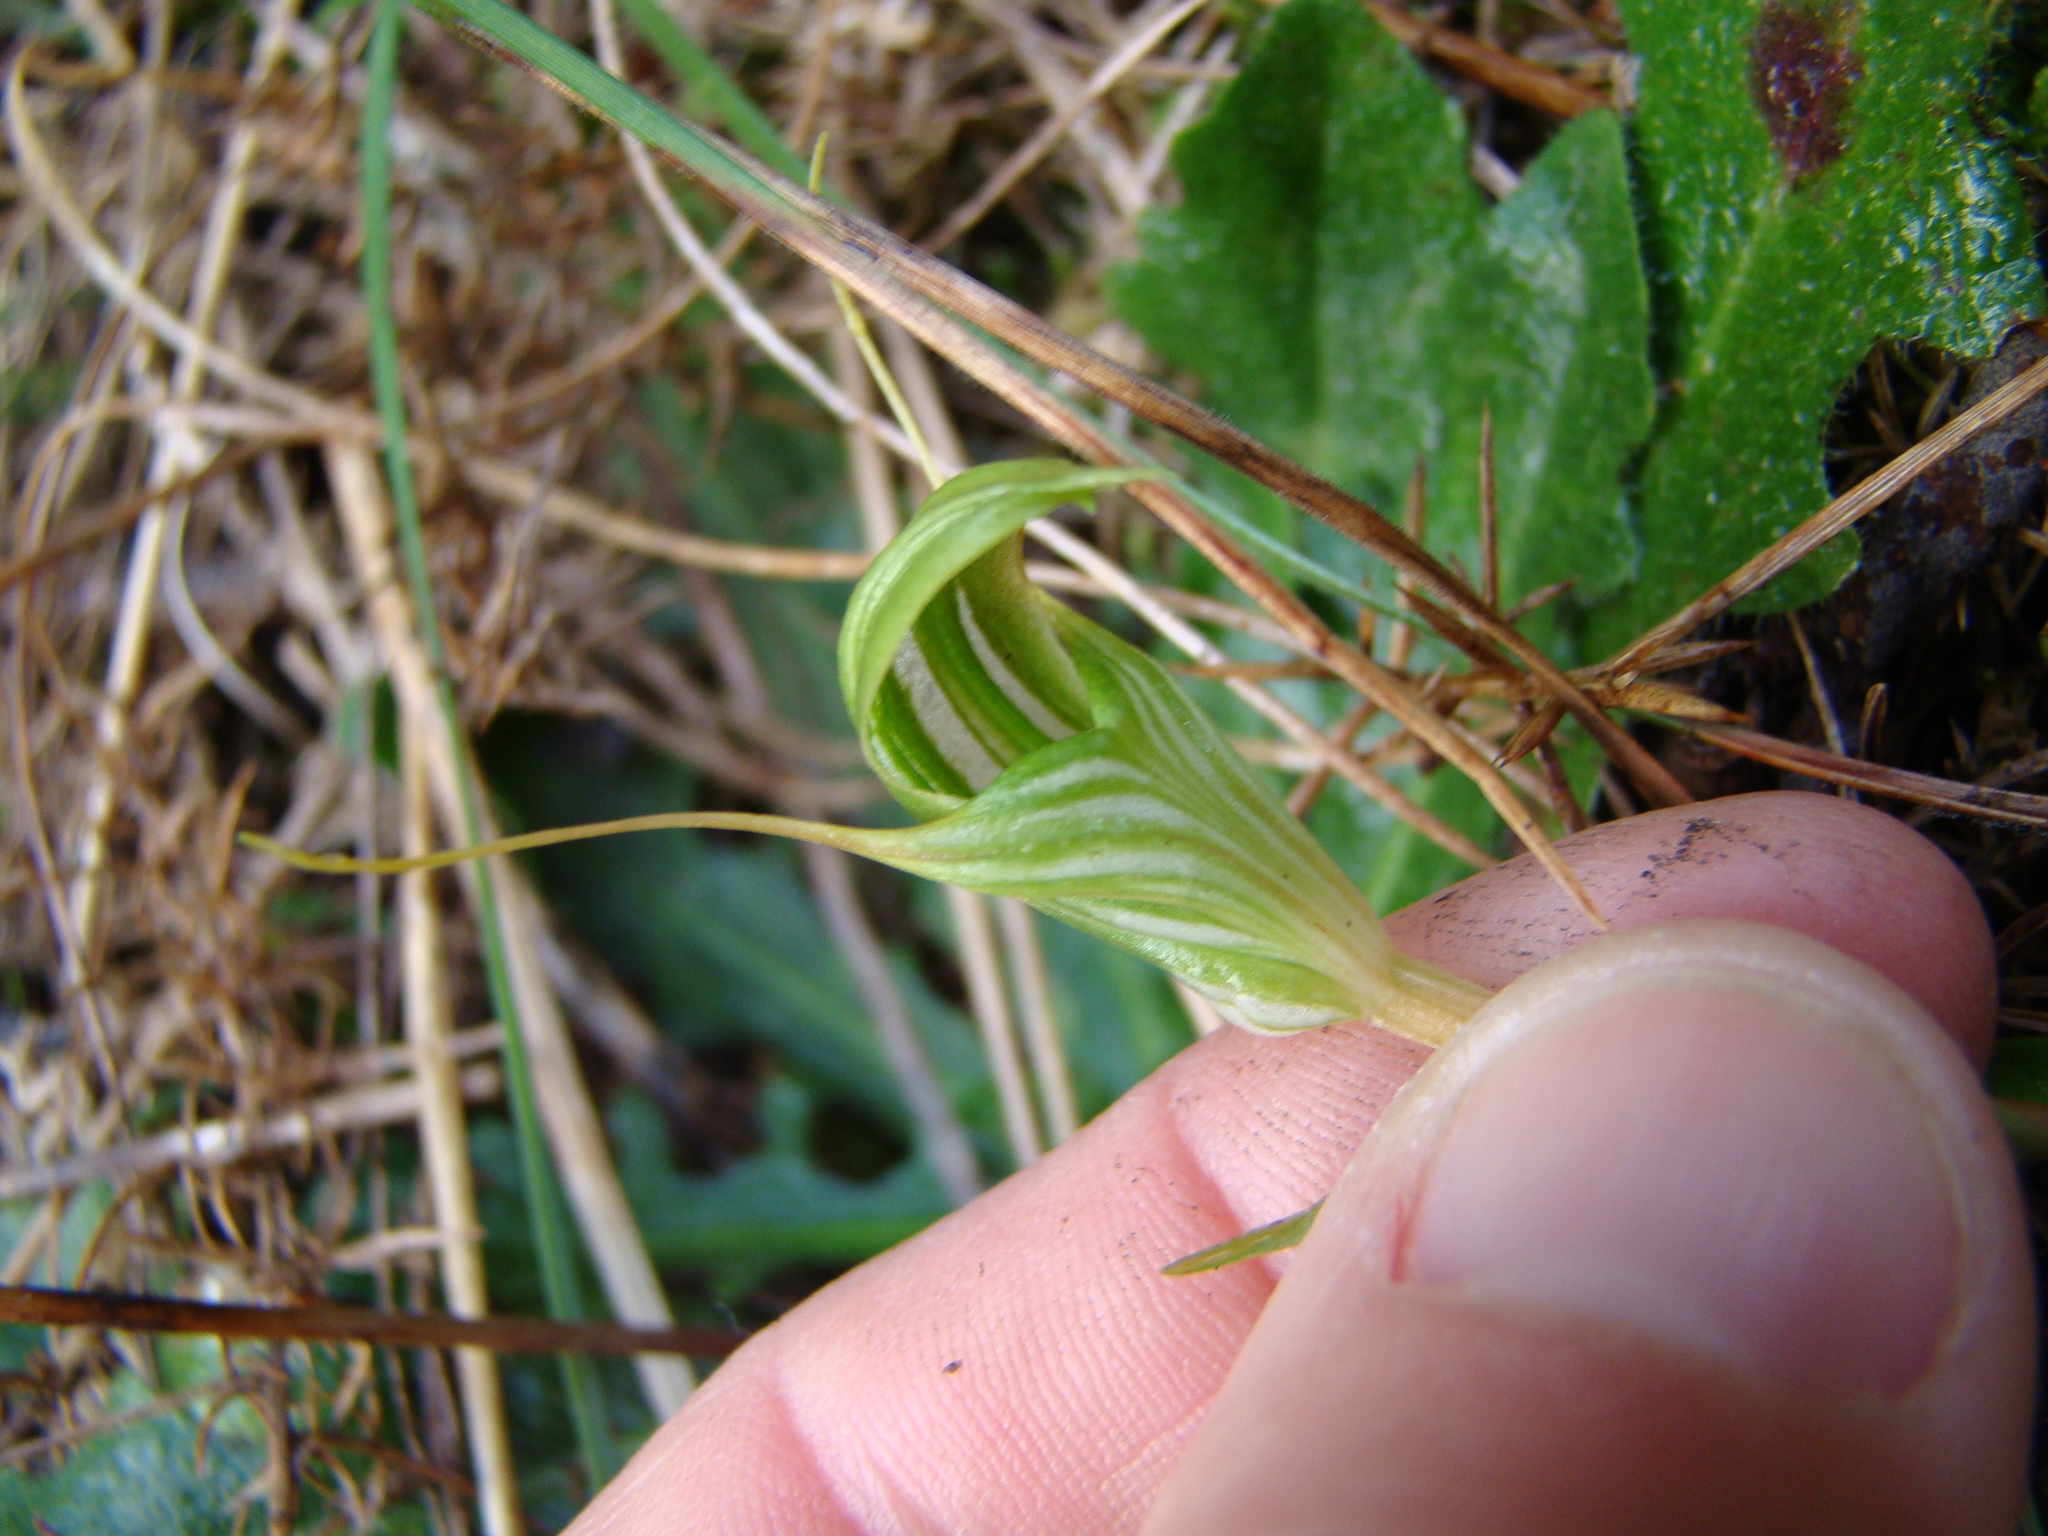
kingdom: Plantae
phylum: Tracheophyta
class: Liliopsida
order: Asparagales
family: Orchidaceae
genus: Pterostylis
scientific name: Pterostylis alobula
